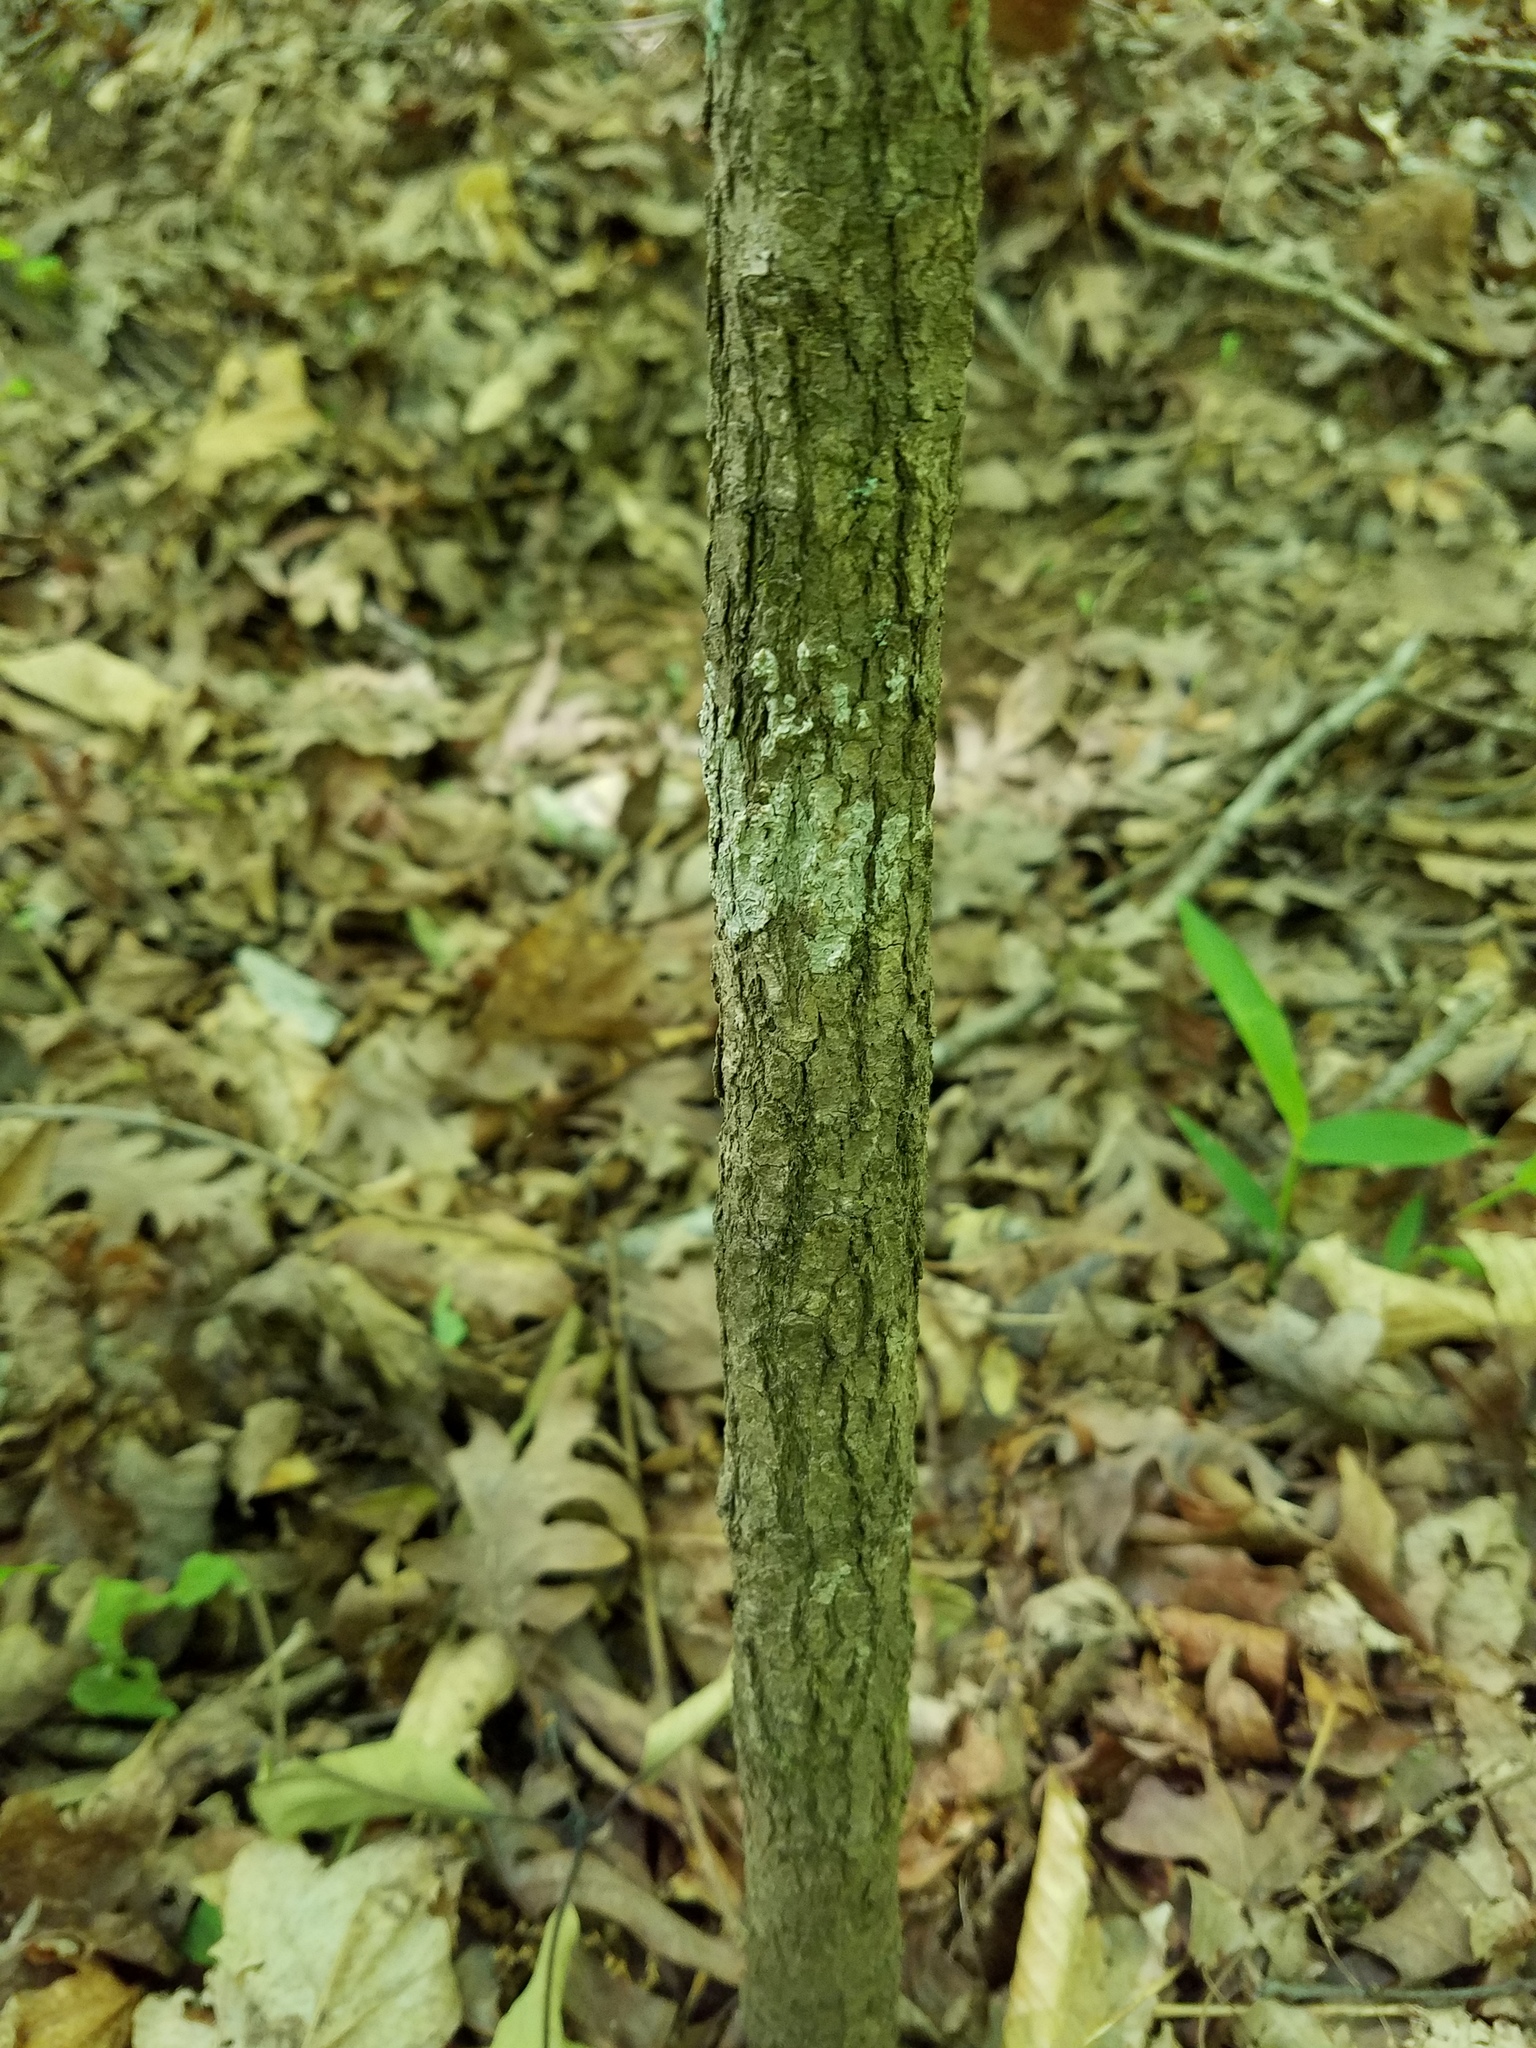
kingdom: Plantae
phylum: Tracheophyta
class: Magnoliopsida
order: Cornales
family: Nyssaceae
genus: Nyssa
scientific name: Nyssa sylvatica
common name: Black tupelo
